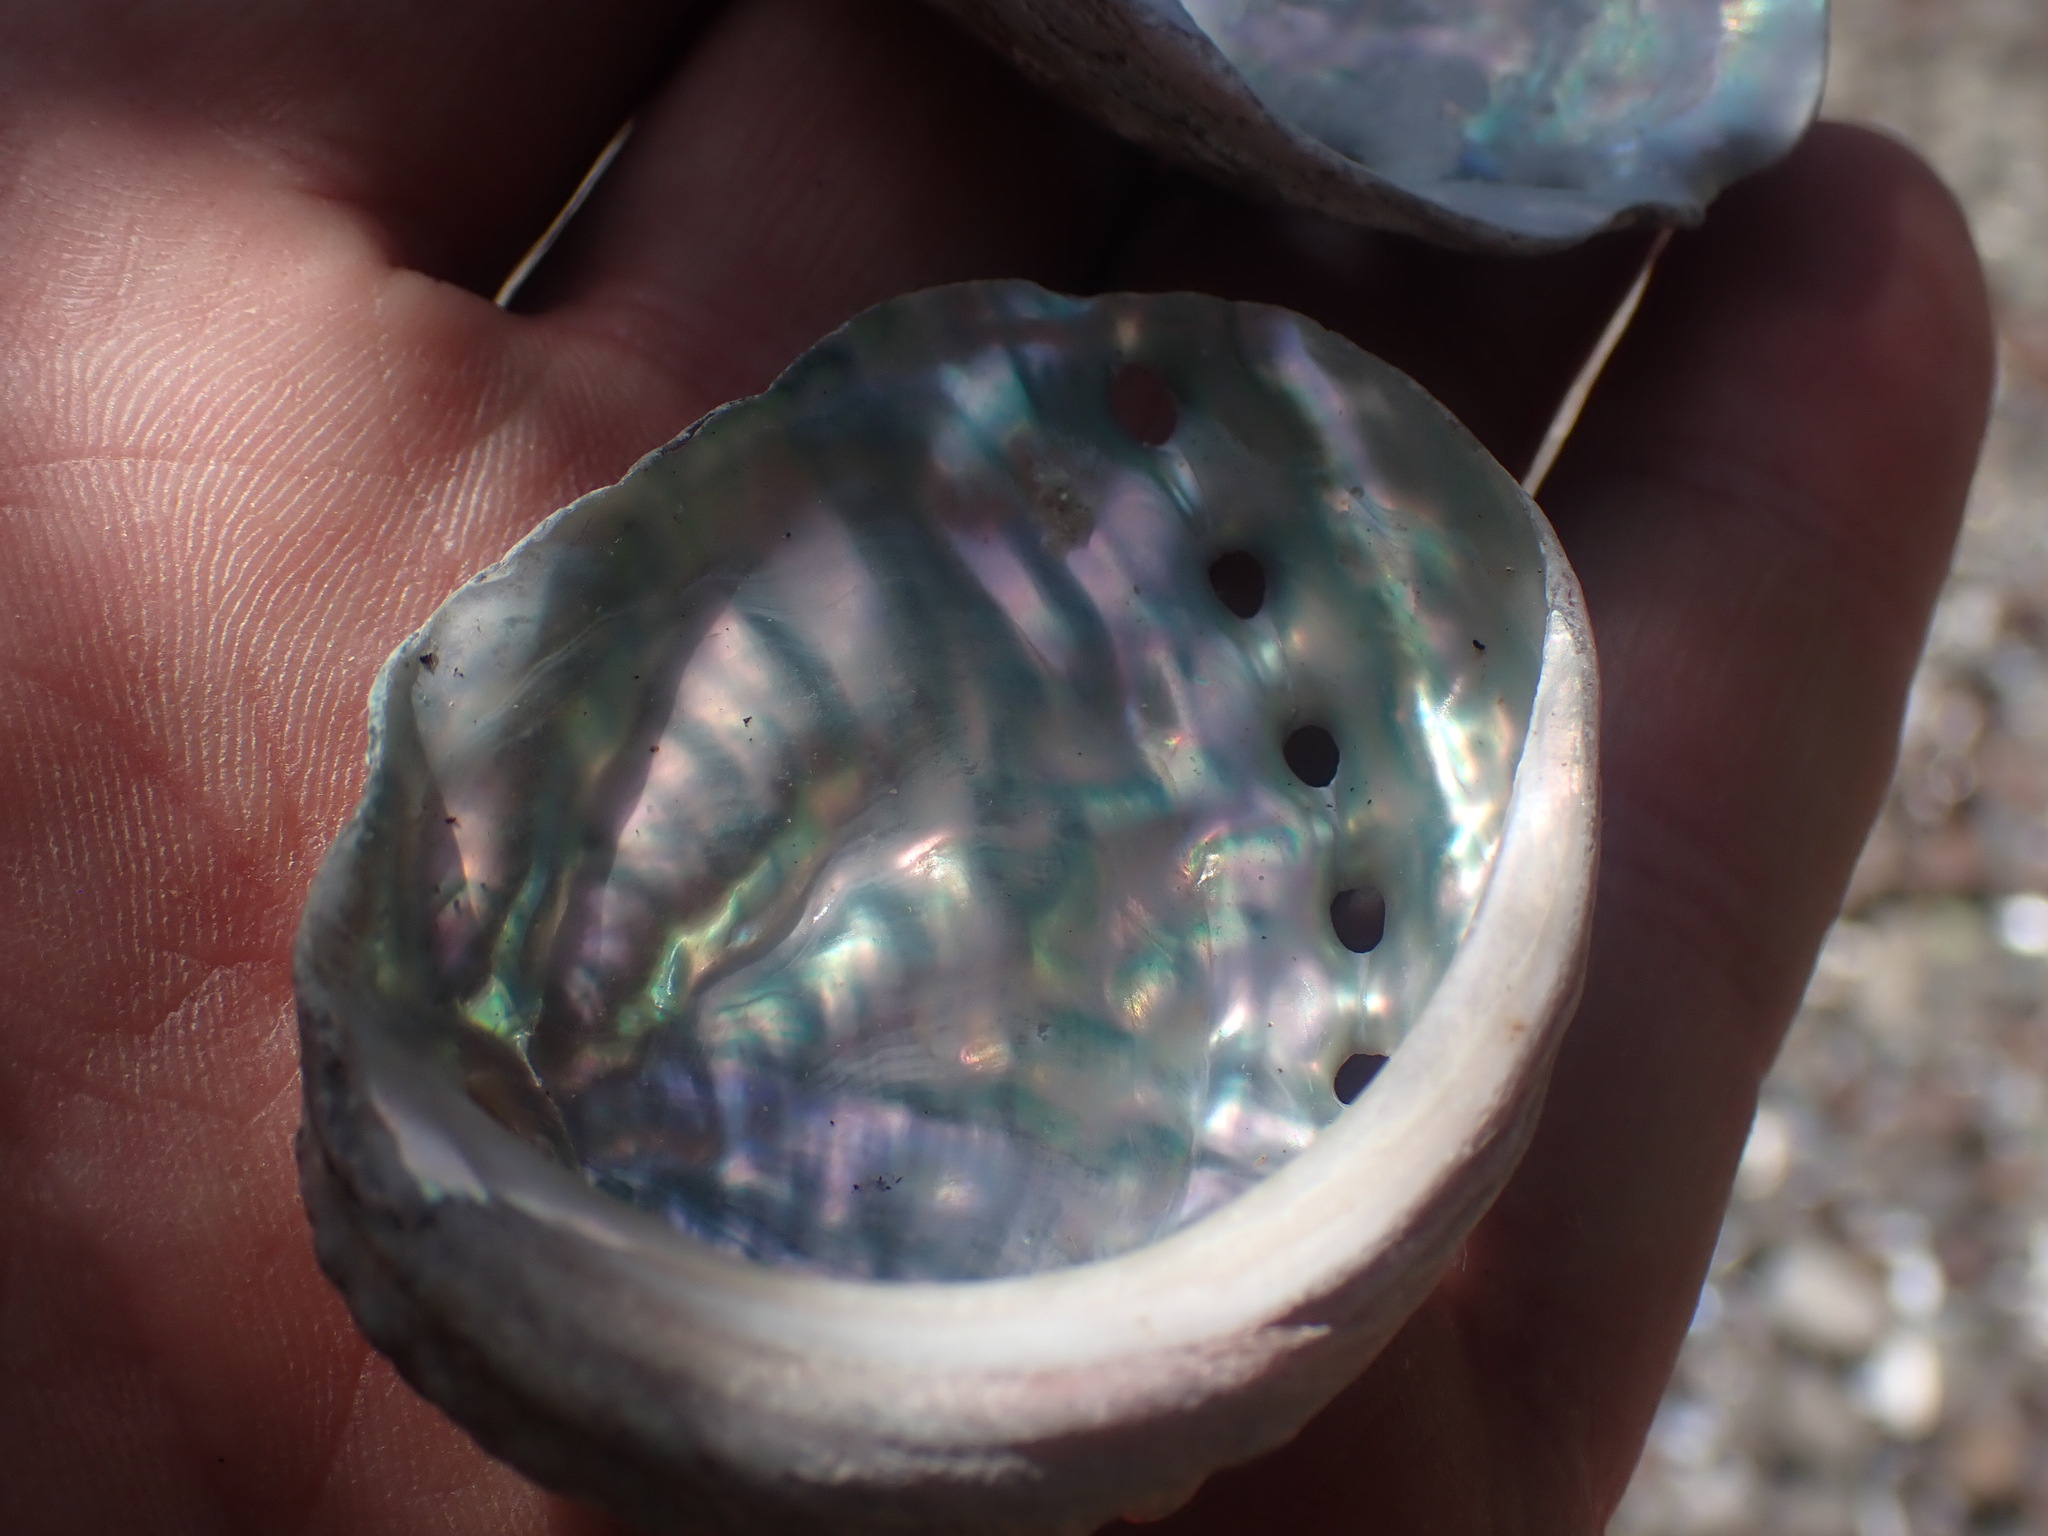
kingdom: Animalia
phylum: Mollusca
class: Gastropoda
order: Lepetellida
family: Haliotidae
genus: Haliotis
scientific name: Haliotis kamtschatkana
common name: Pinto abalone
